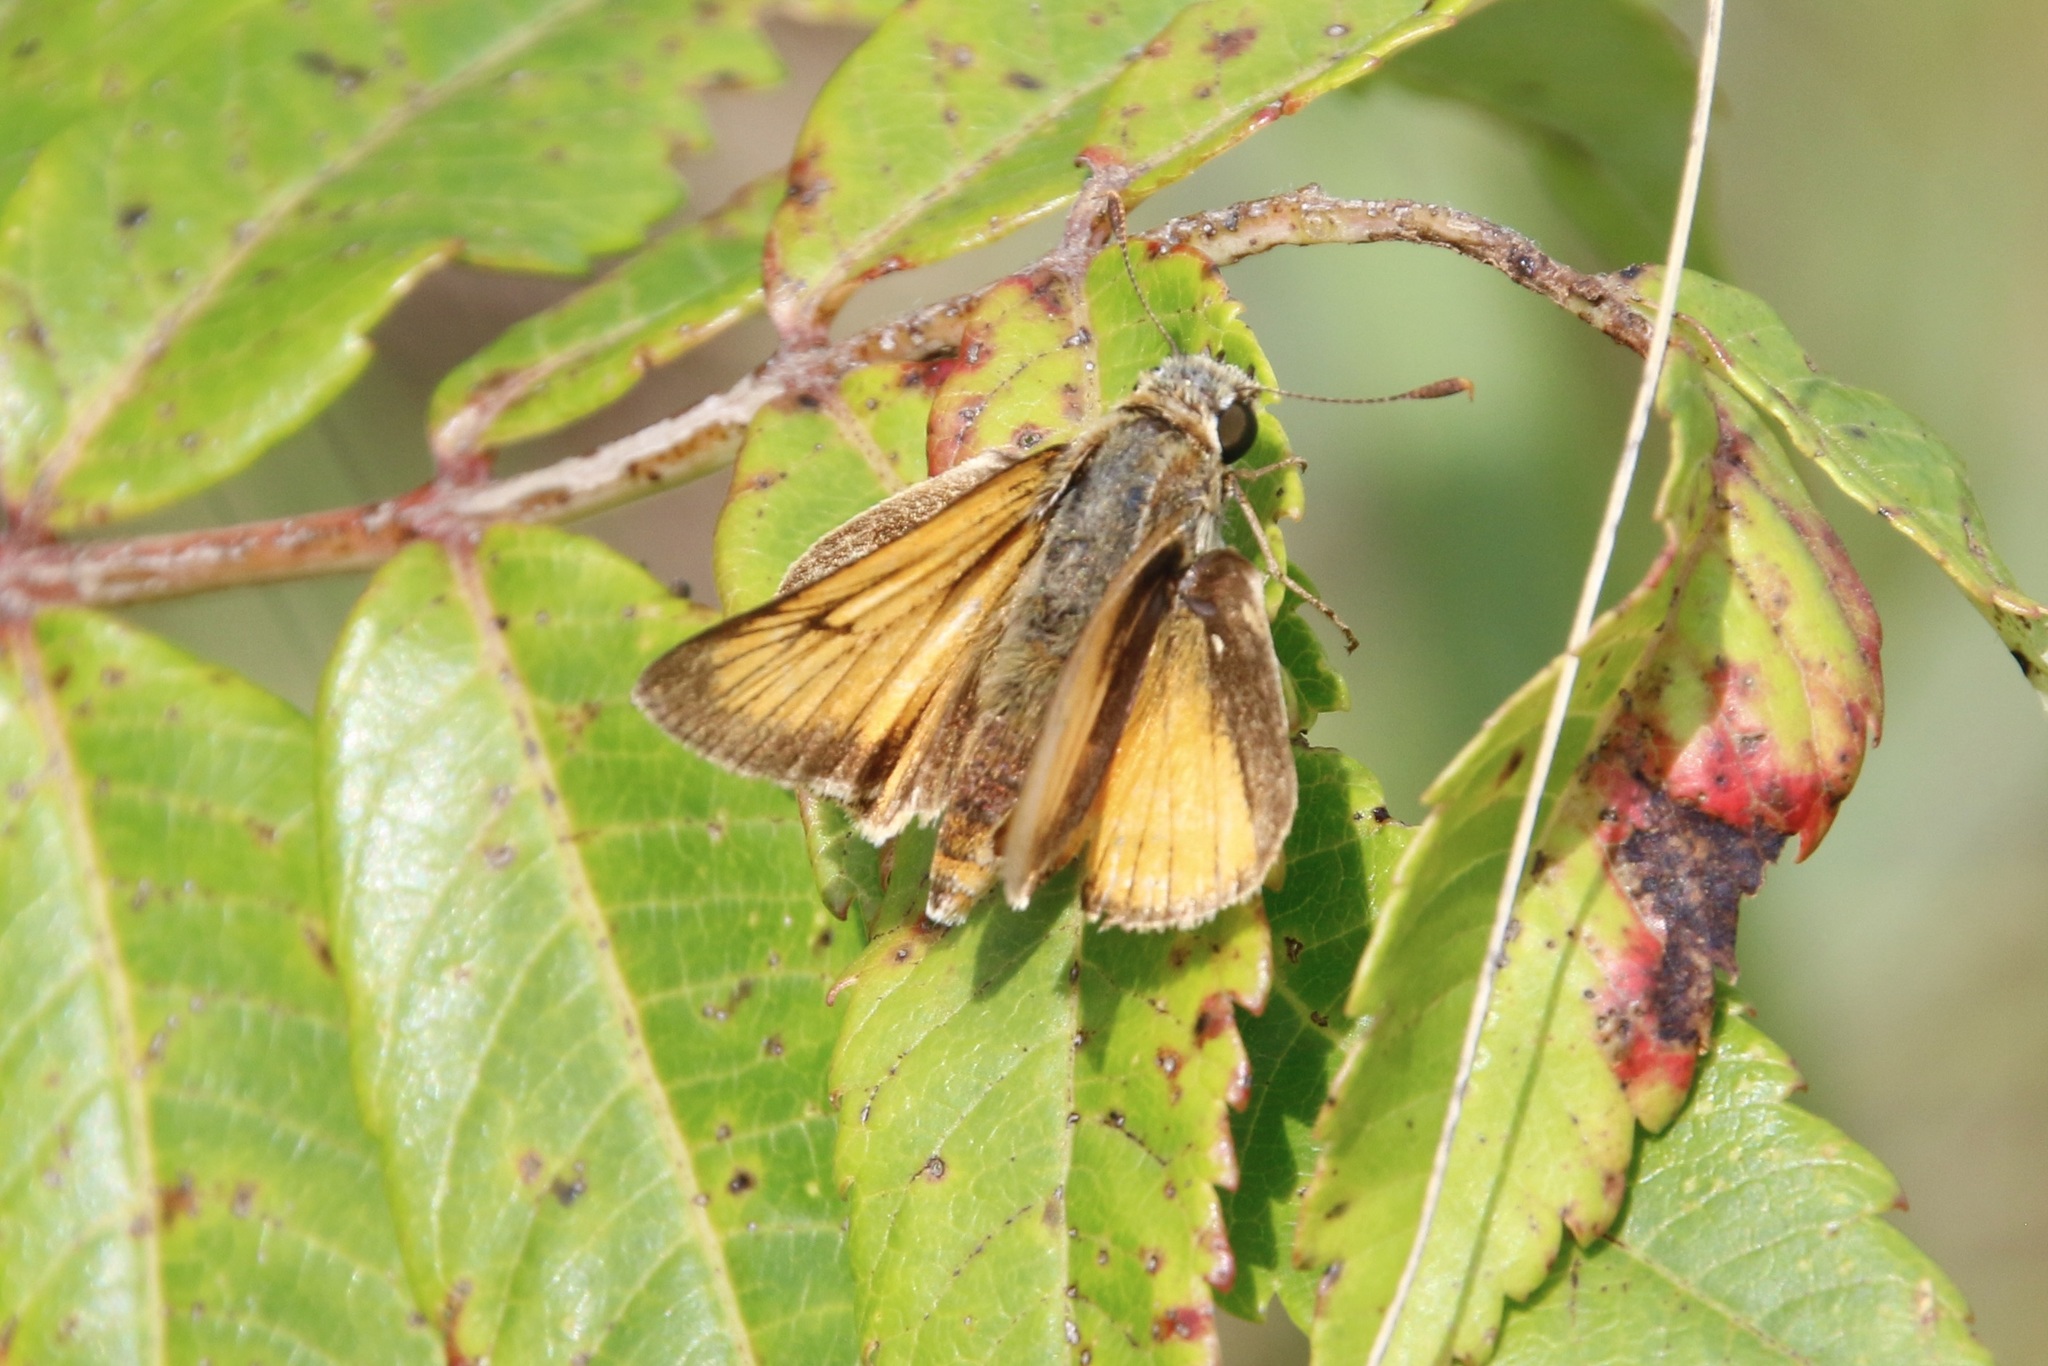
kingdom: Animalia
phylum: Arthropoda
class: Insecta
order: Lepidoptera
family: Hesperiidae
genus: Atrytone
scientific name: Atrytone delaware
